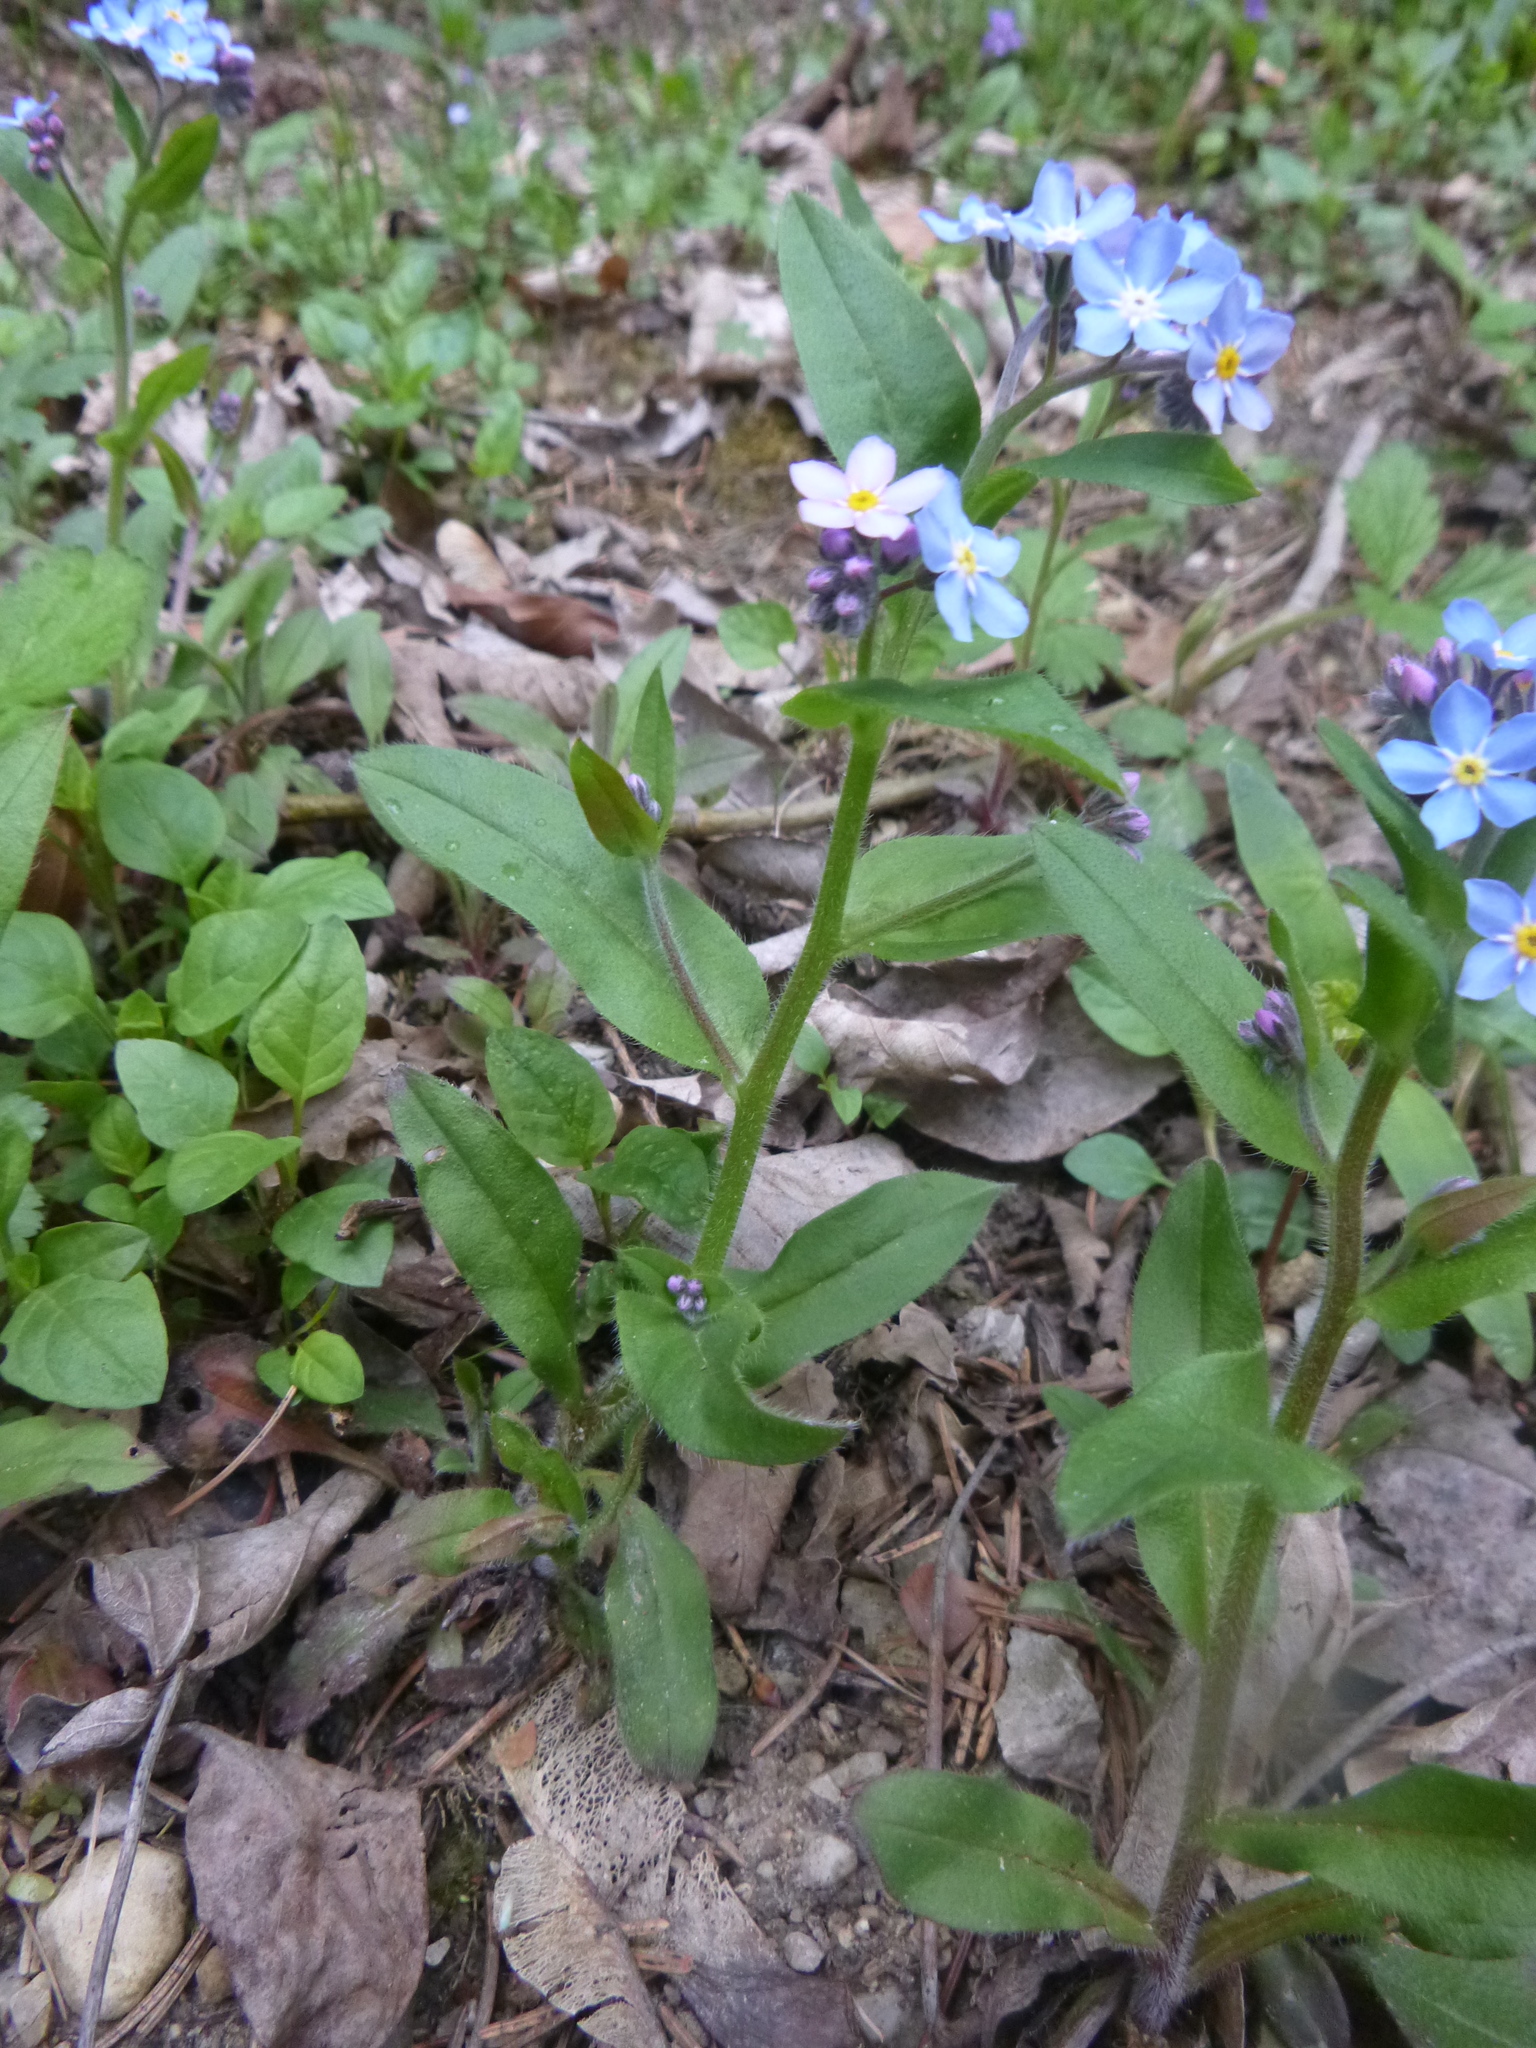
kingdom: Plantae
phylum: Tracheophyta
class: Magnoliopsida
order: Boraginales
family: Boraginaceae
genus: Myosotis
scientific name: Myosotis sylvatica
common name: Wood forget-me-not
